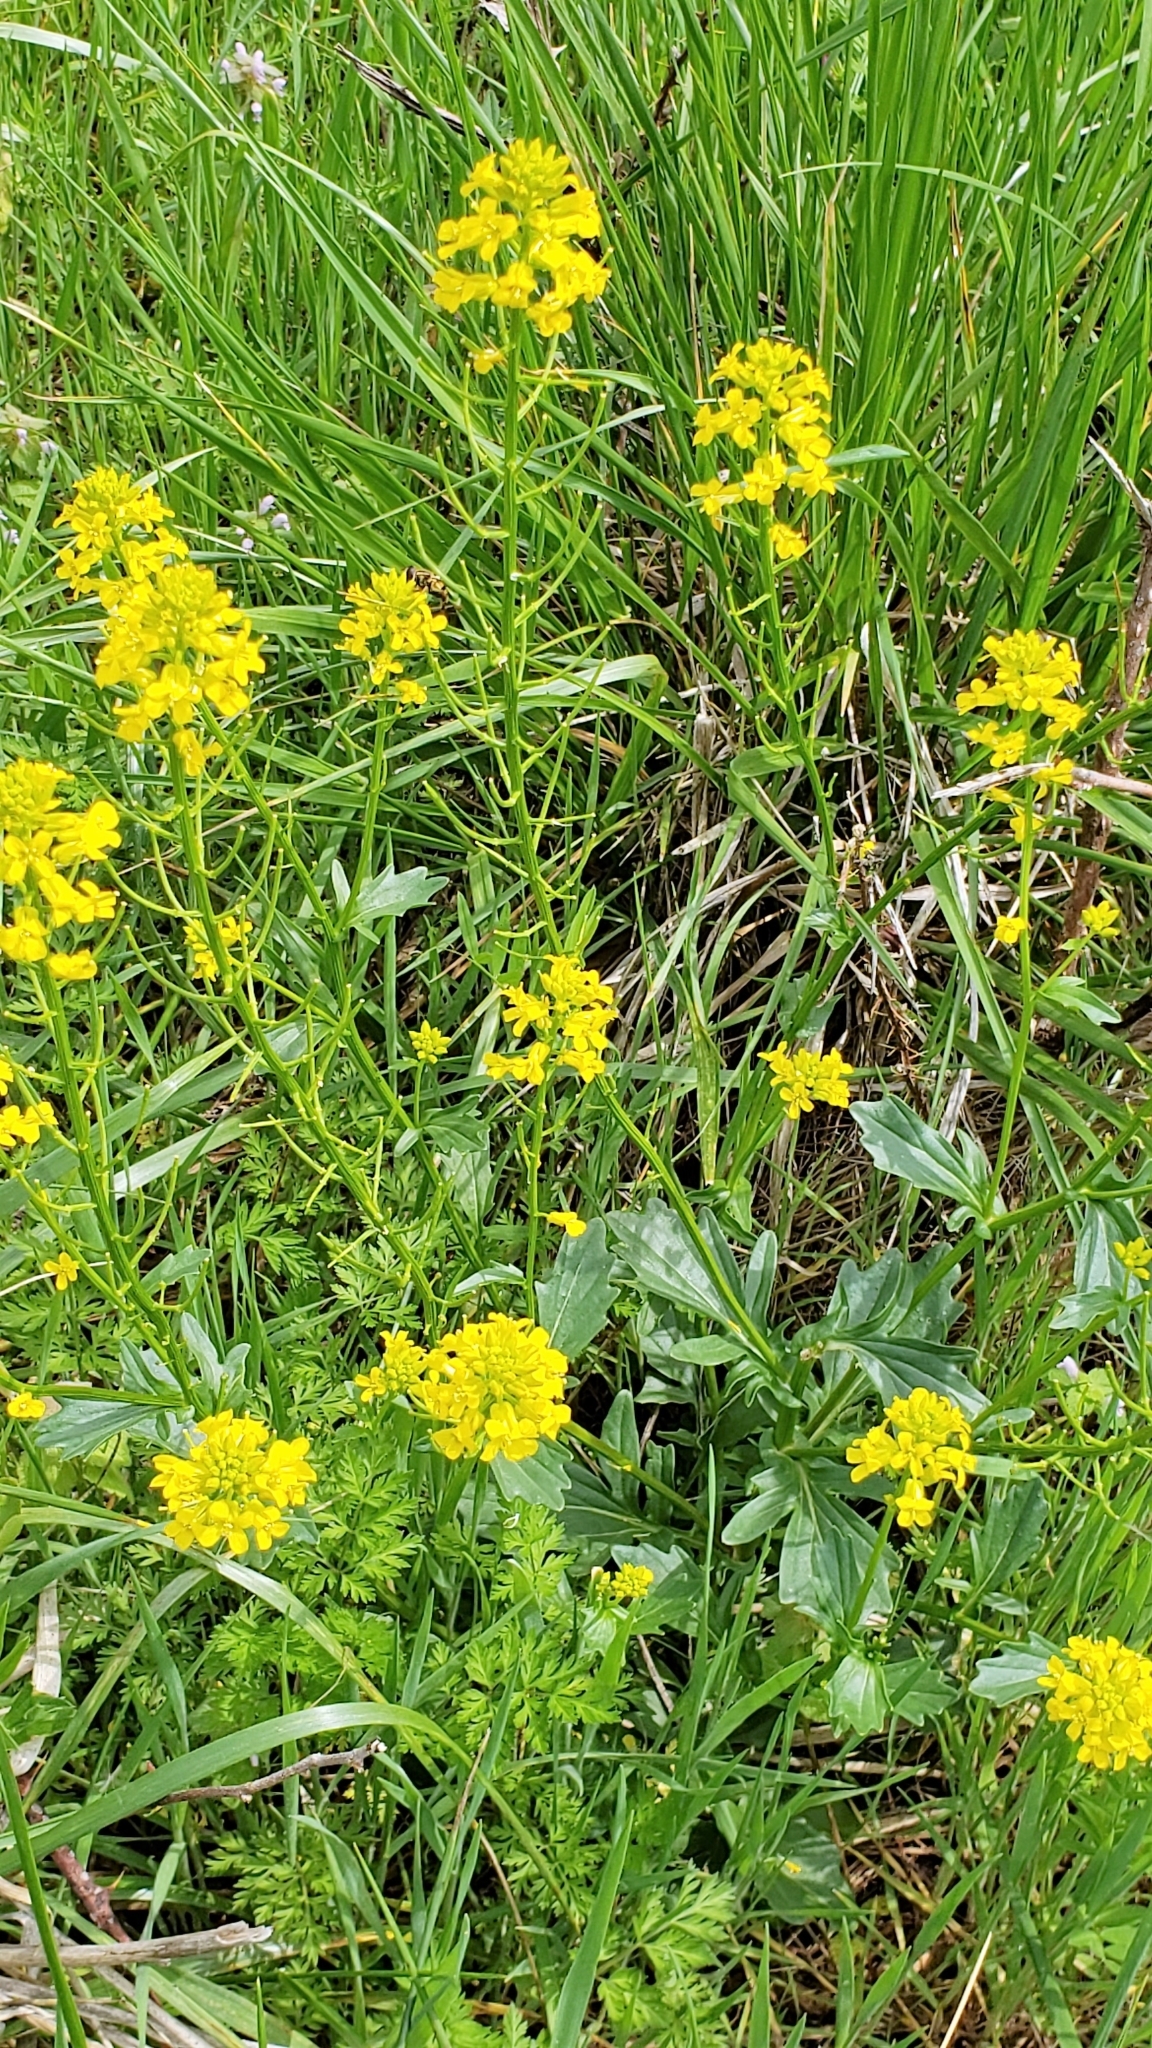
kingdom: Plantae
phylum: Tracheophyta
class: Magnoliopsida
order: Brassicales
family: Brassicaceae
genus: Barbarea
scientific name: Barbarea vulgaris
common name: Cressy-greens
